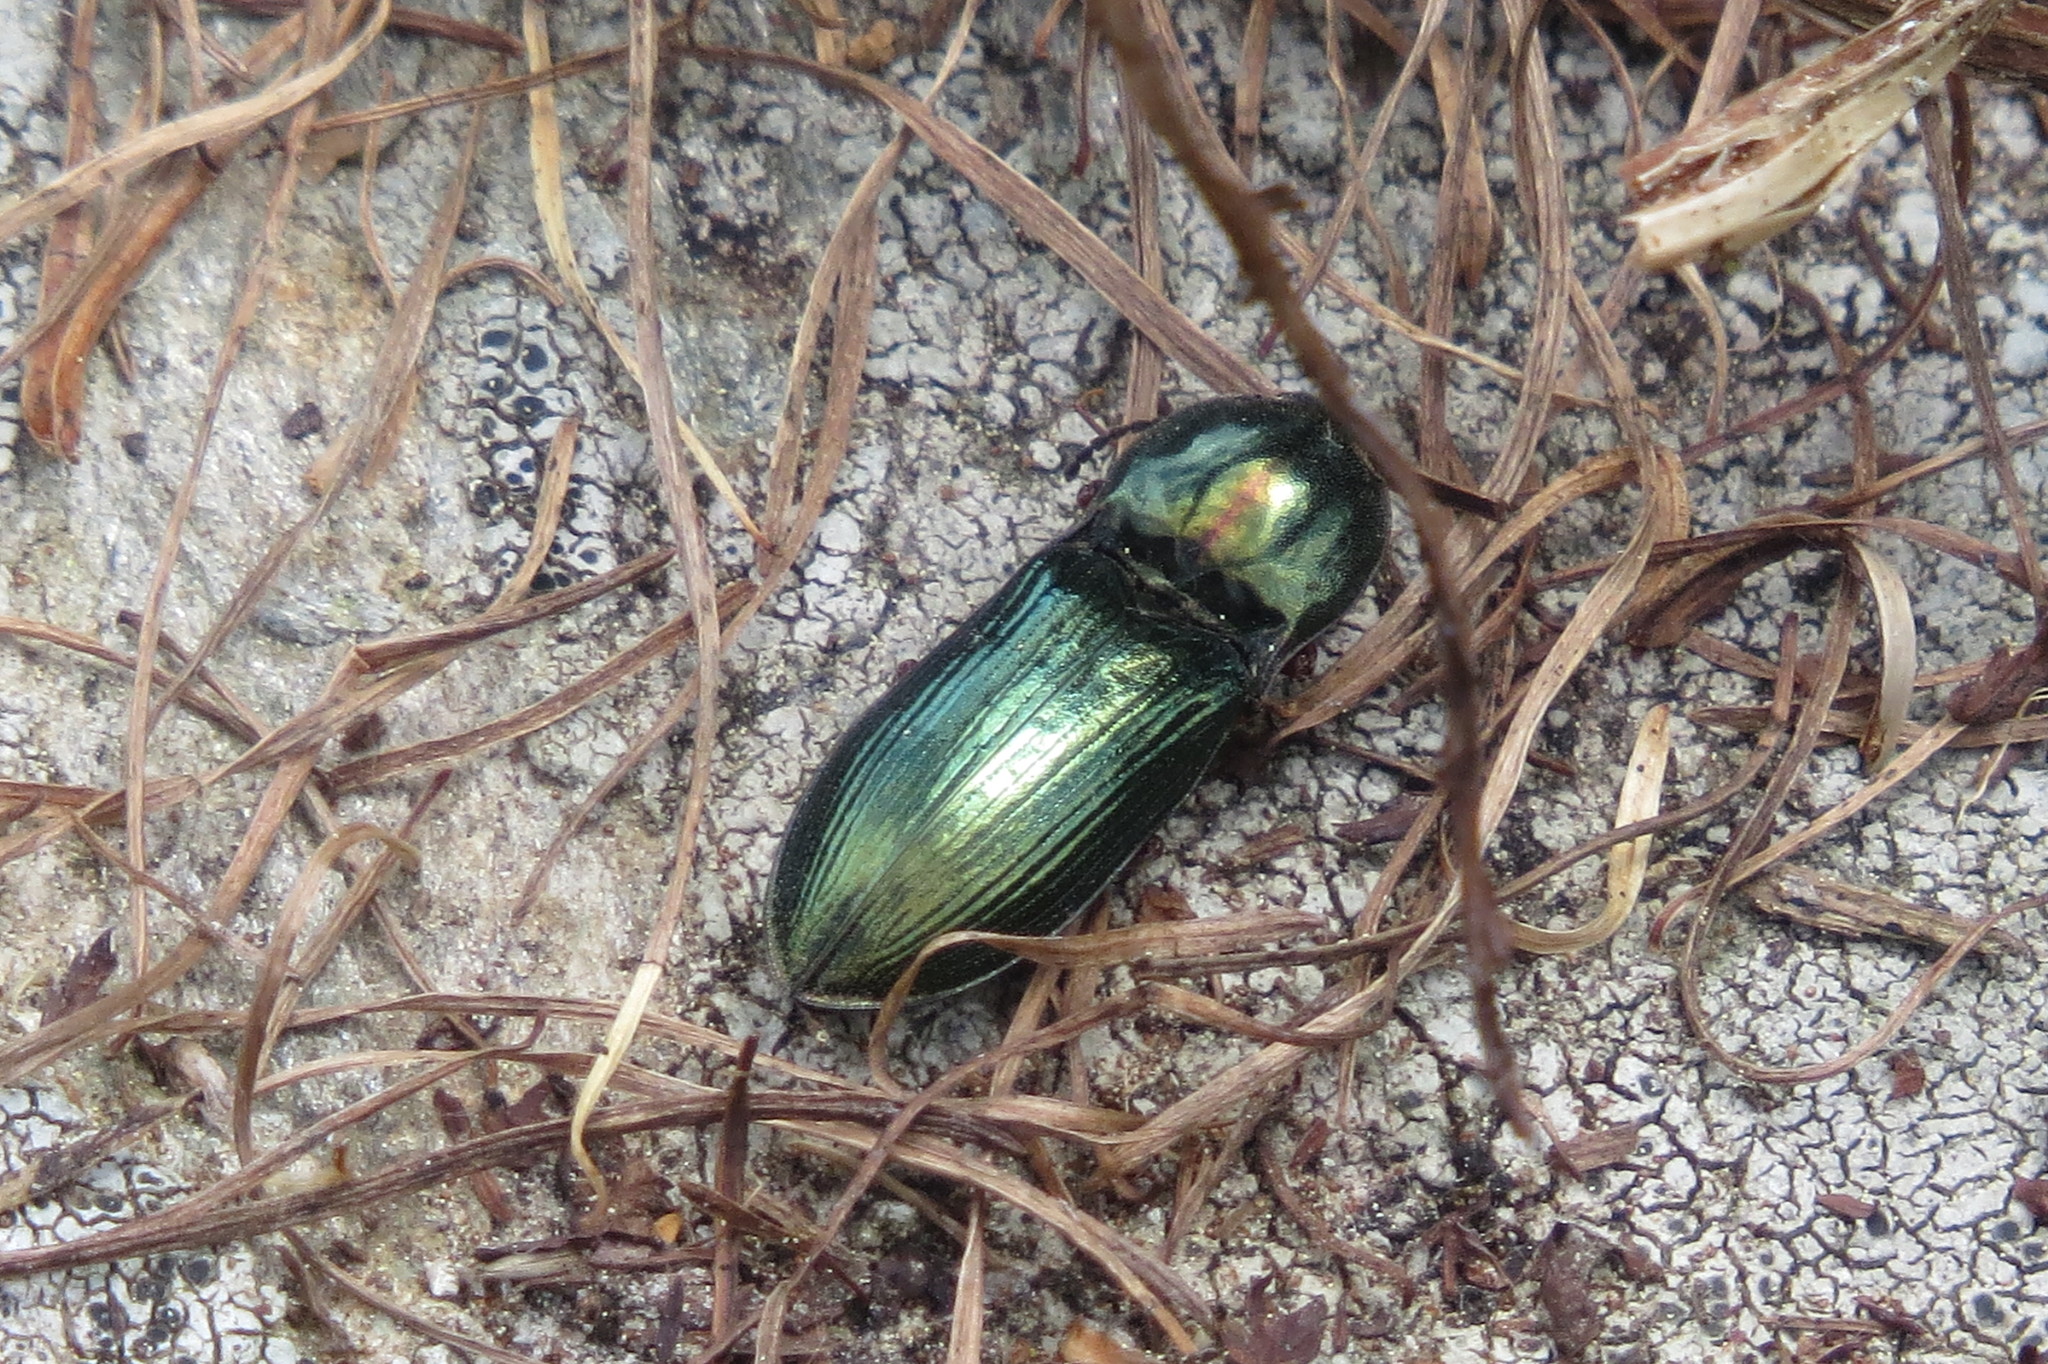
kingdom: Animalia
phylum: Arthropoda
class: Insecta
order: Coleoptera
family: Elateridae
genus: Selatosomus
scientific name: Selatosomus aeneus
